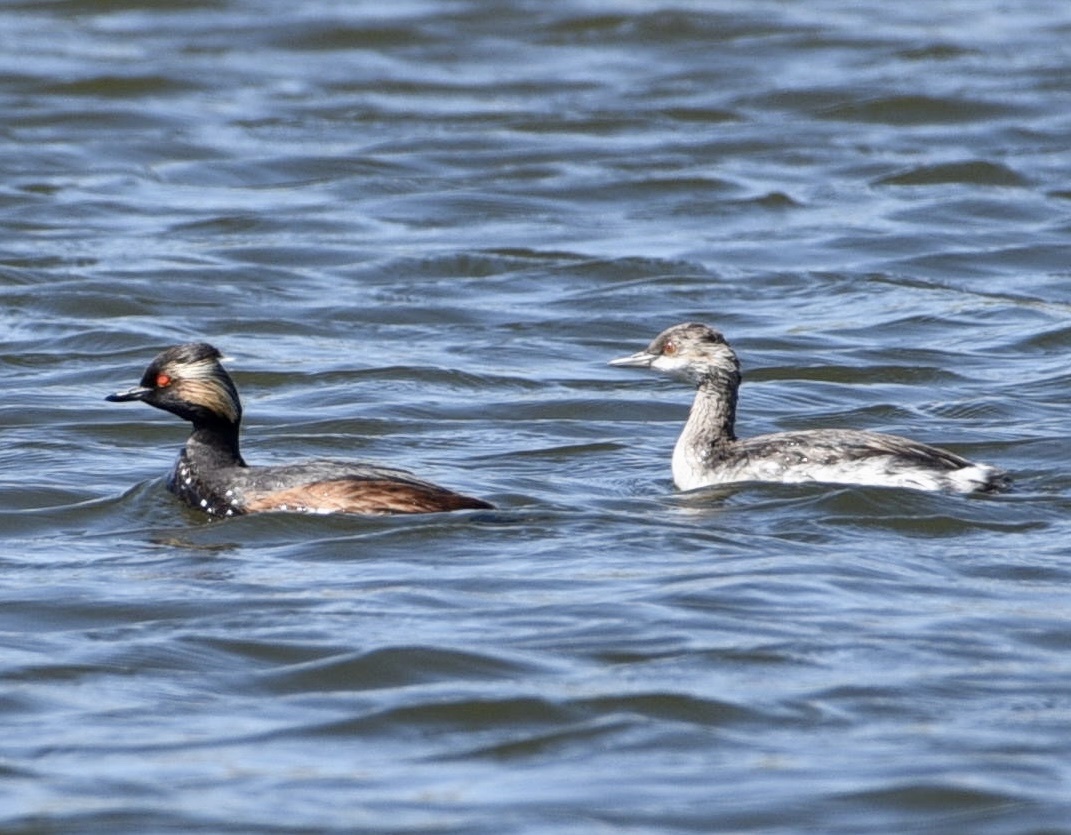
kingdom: Animalia
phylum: Chordata
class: Aves
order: Podicipediformes
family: Podicipedidae
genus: Podiceps
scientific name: Podiceps nigricollis
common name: Black-necked grebe
